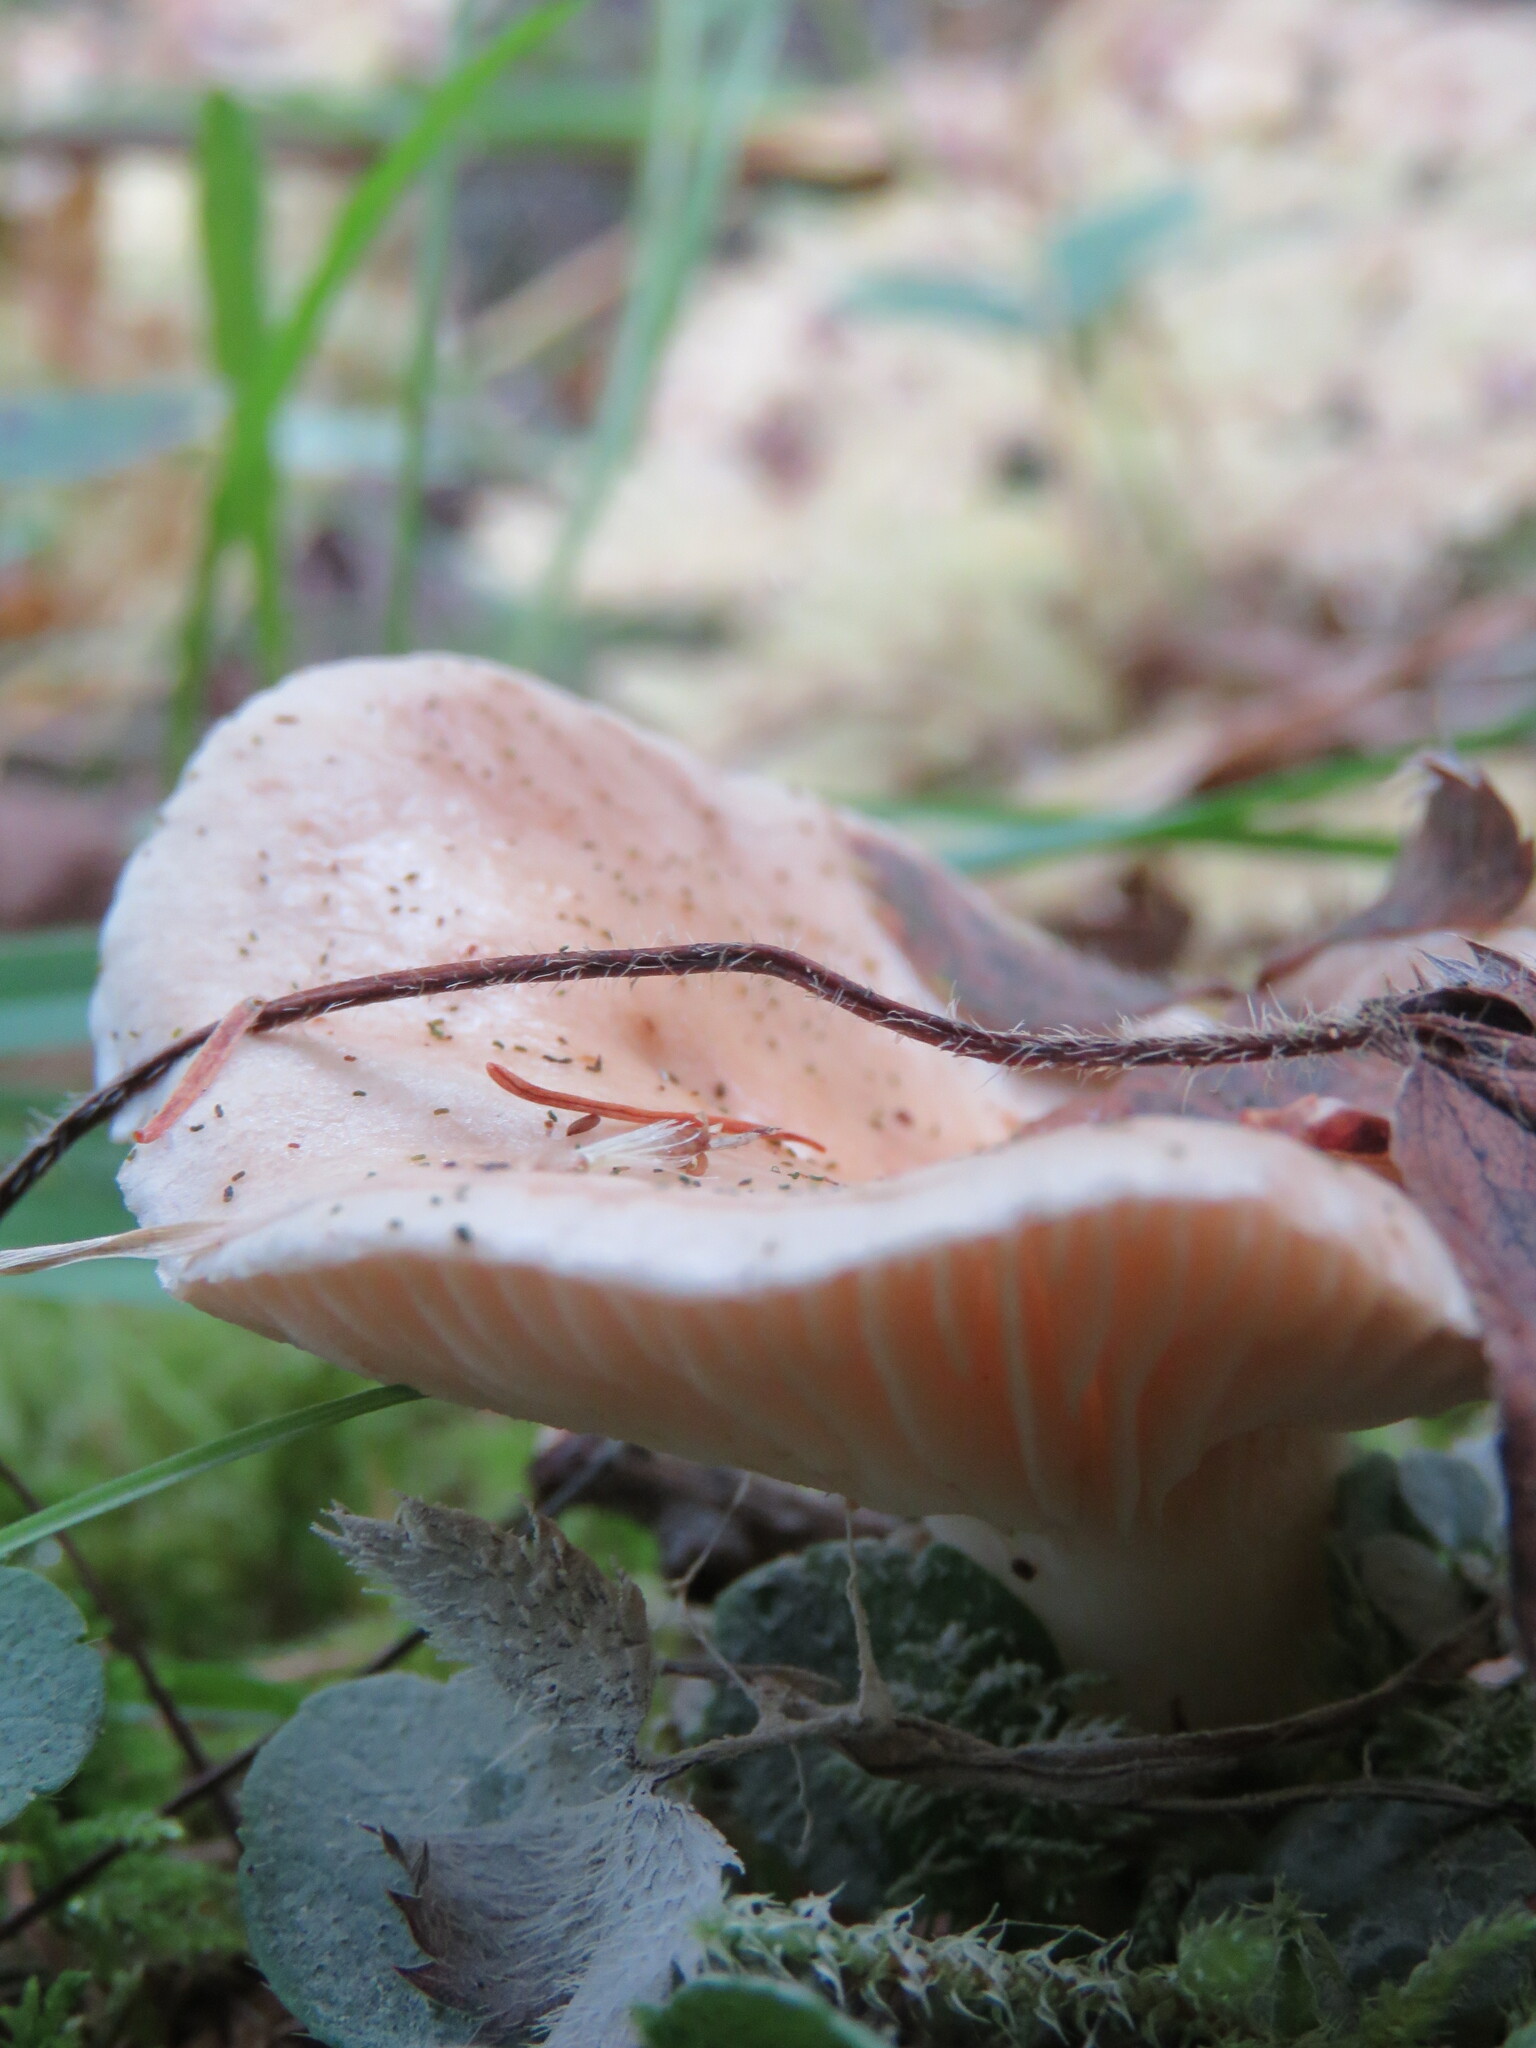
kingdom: Fungi
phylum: Basidiomycota
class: Agaricomycetes
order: Agaricales
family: Omphalotaceae
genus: Rhodocollybia
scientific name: Rhodocollybia maculata
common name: Spotted tough-shank
